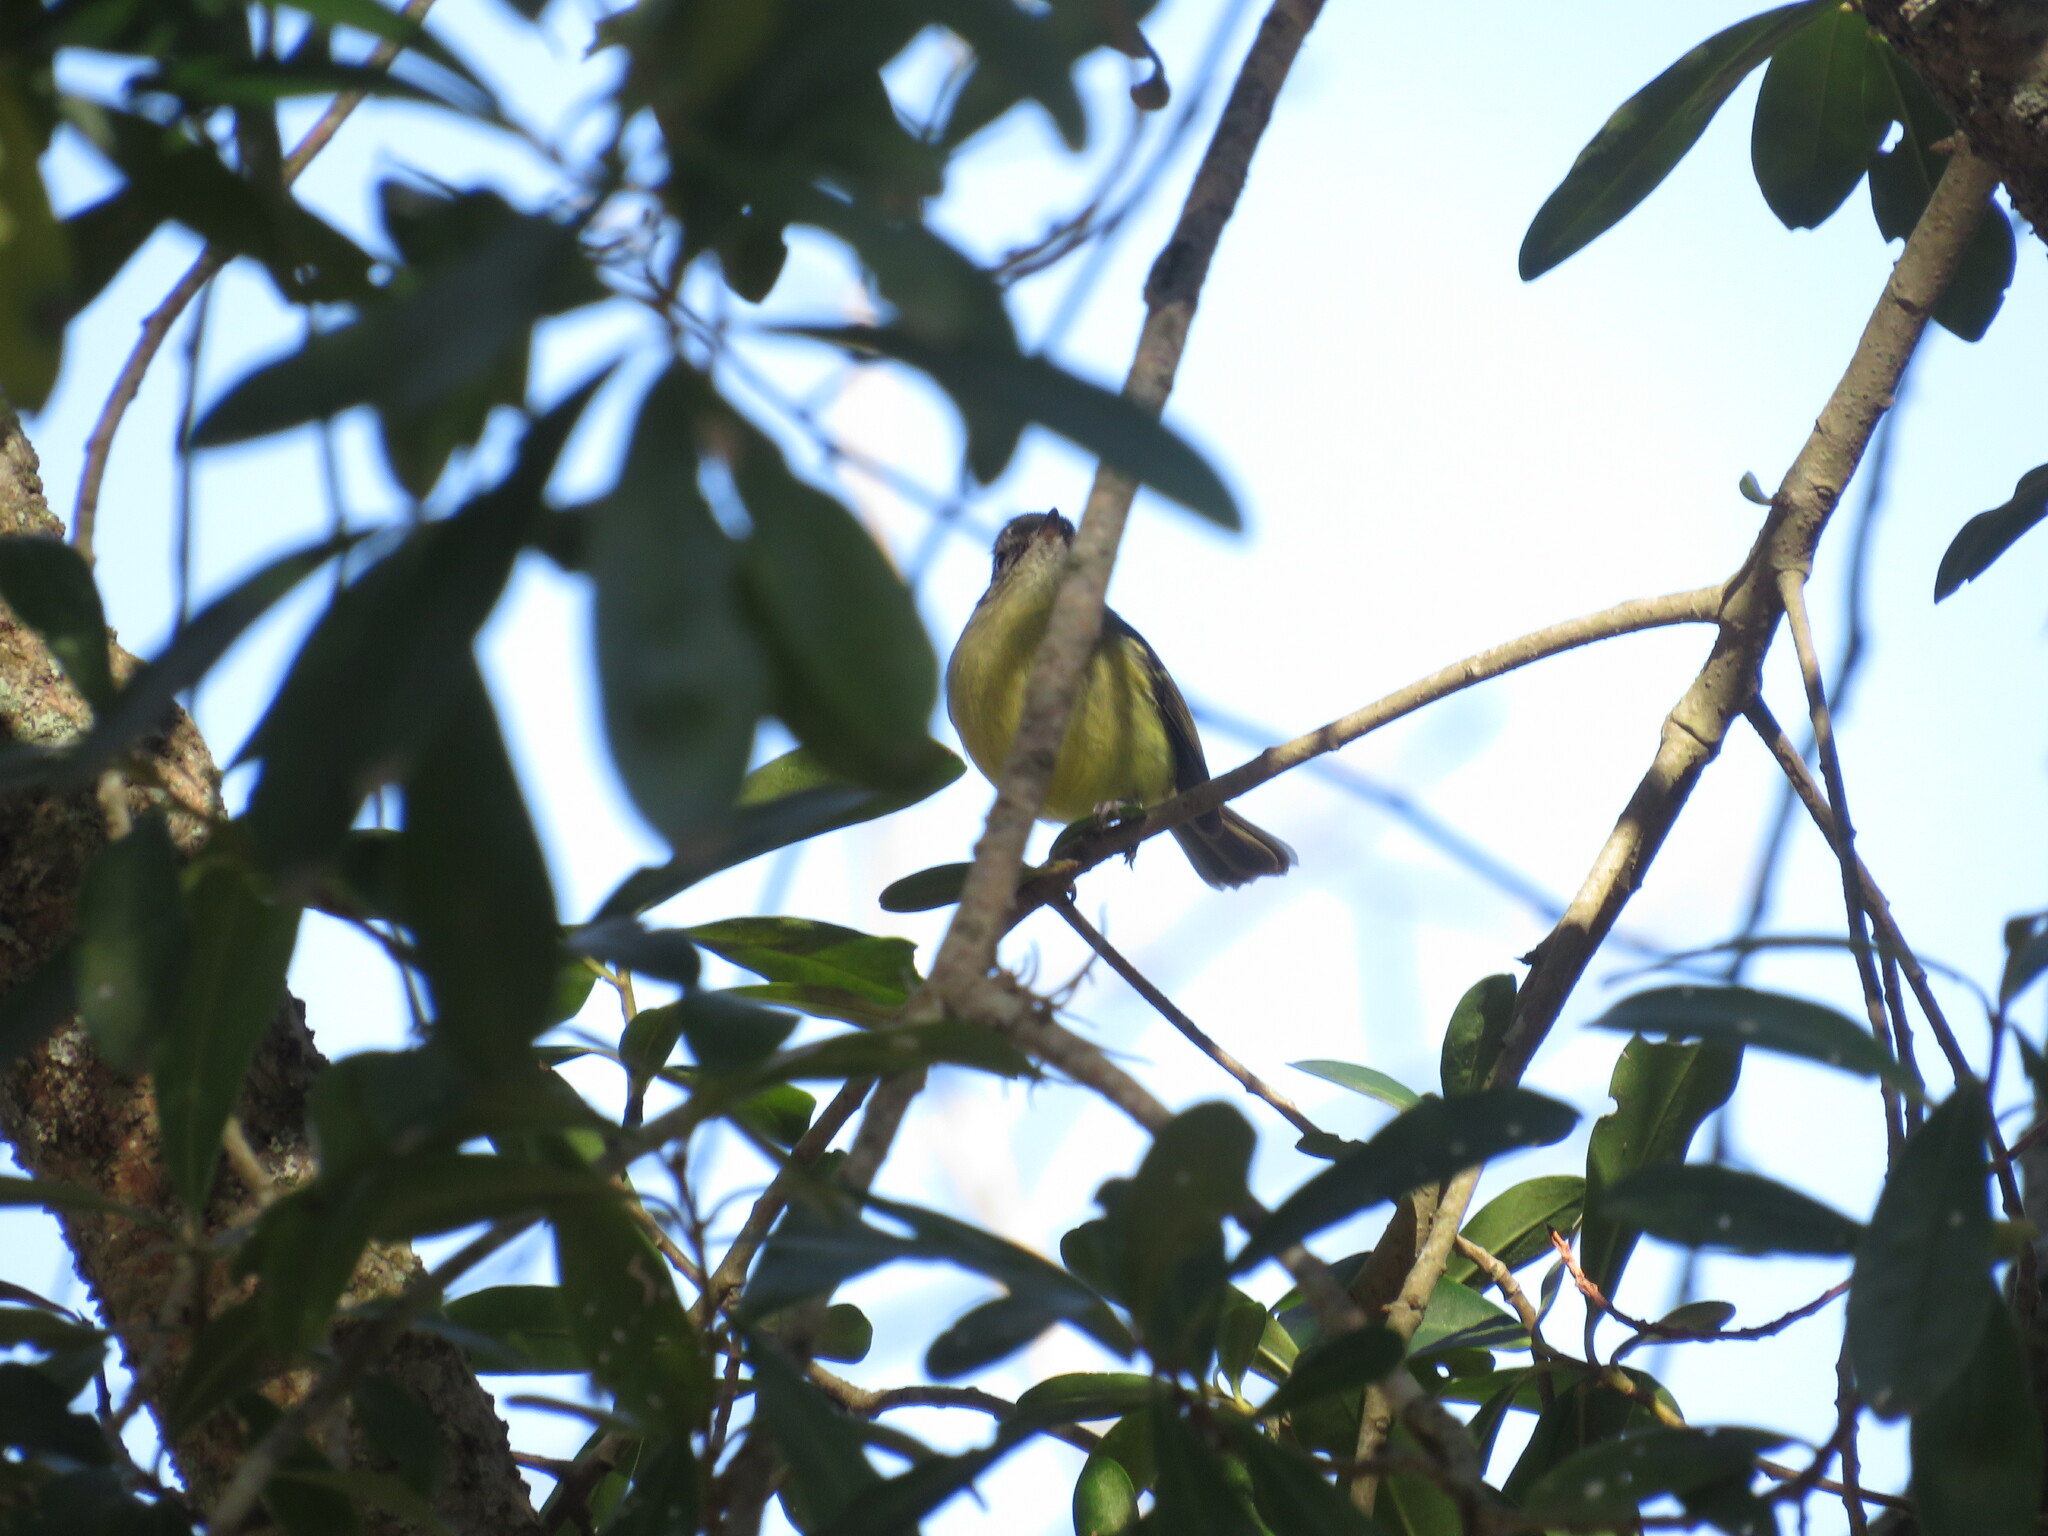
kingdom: Animalia
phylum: Chordata
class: Aves
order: Passeriformes
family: Tyrannidae
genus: Phylloscartes
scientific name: Phylloscartes ventralis
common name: Mottle-cheeked tyrannulet
